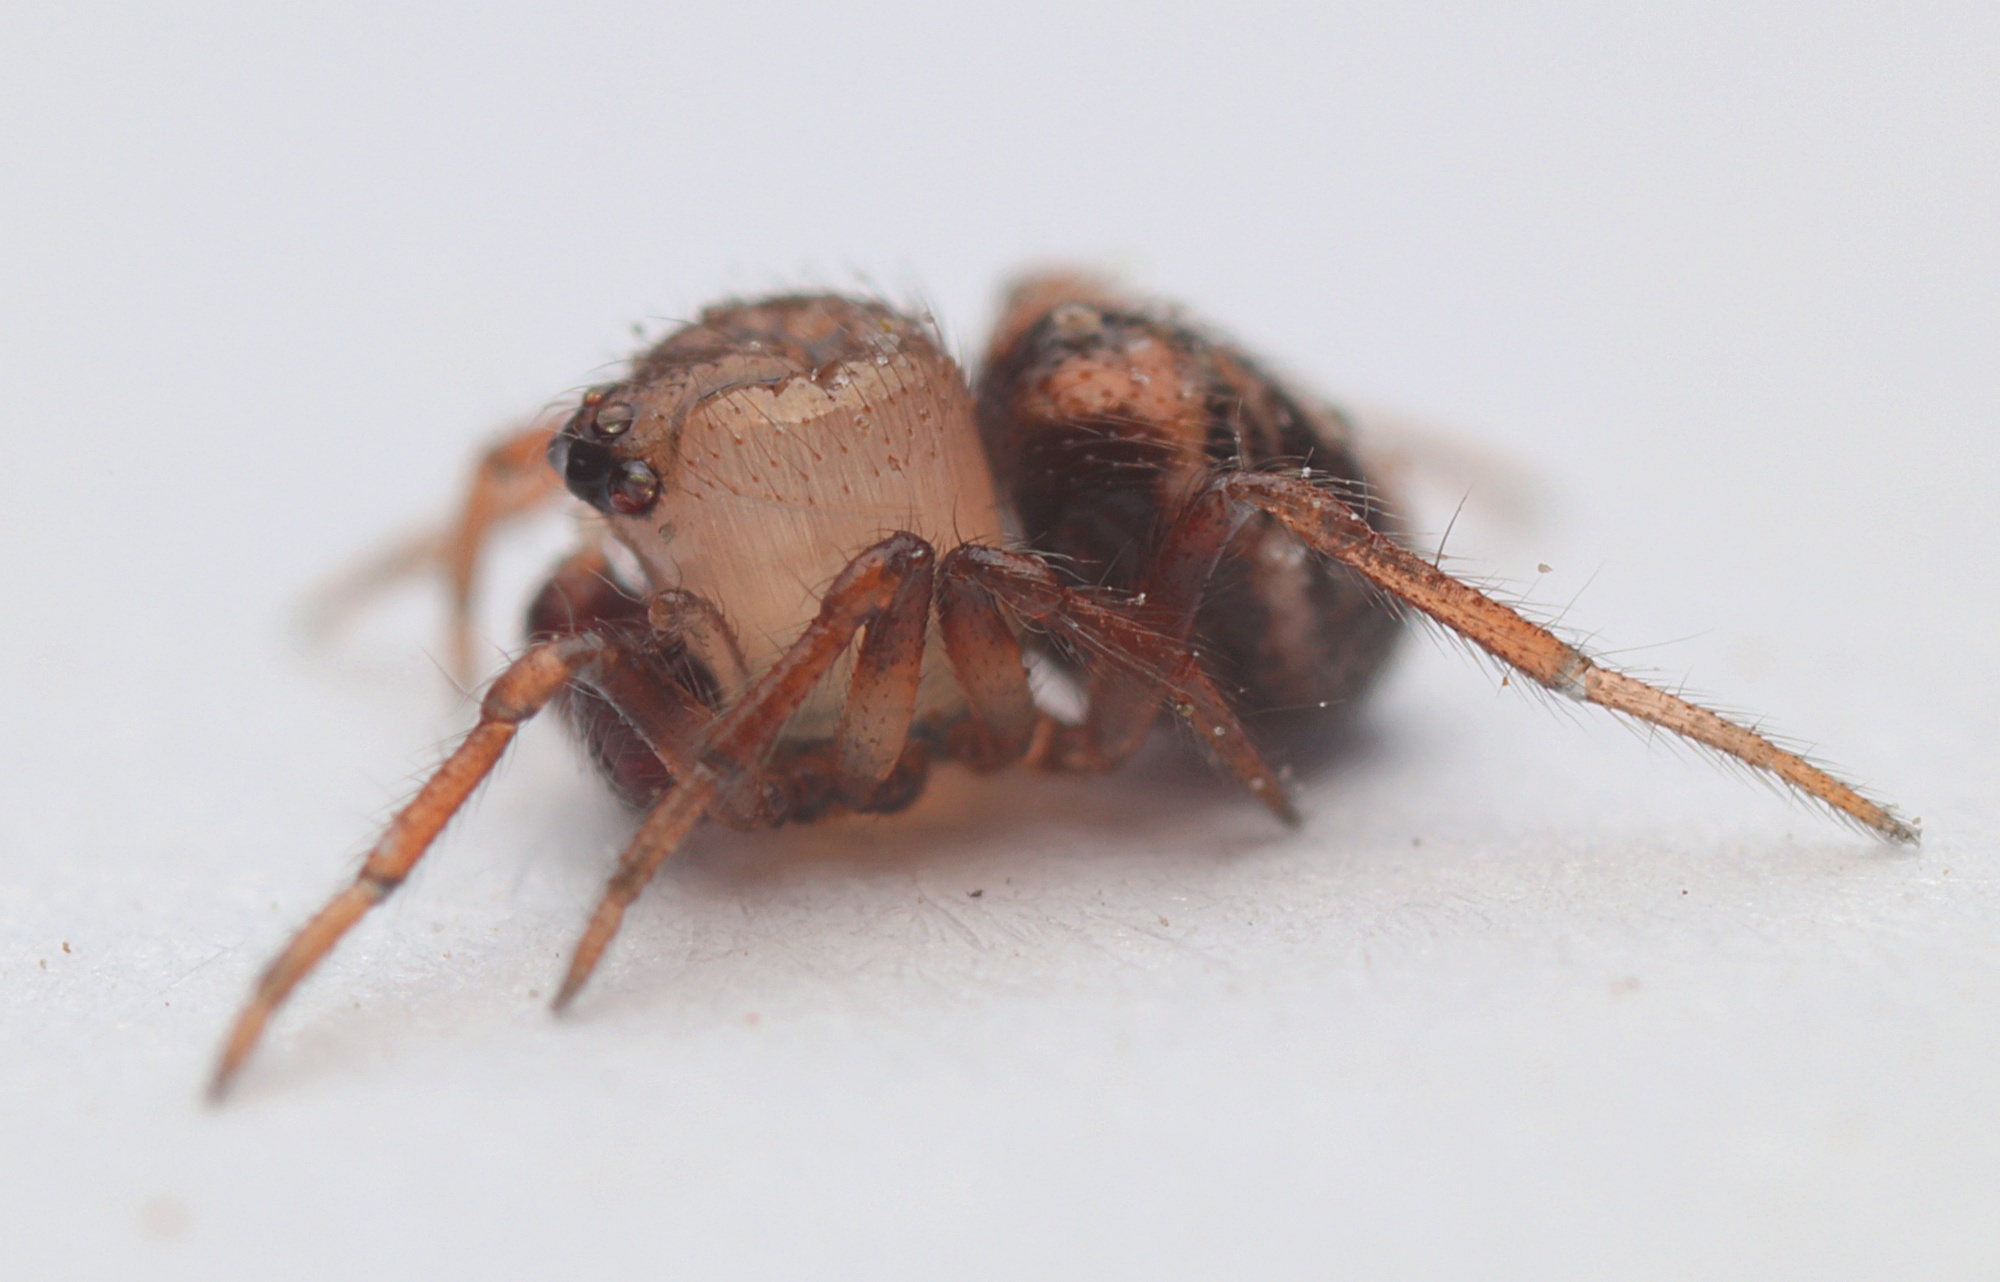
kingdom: Animalia
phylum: Arthropoda
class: Arachnida
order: Araneae
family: Theridiidae
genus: Phycosoma
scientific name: Phycosoma oecobioides
